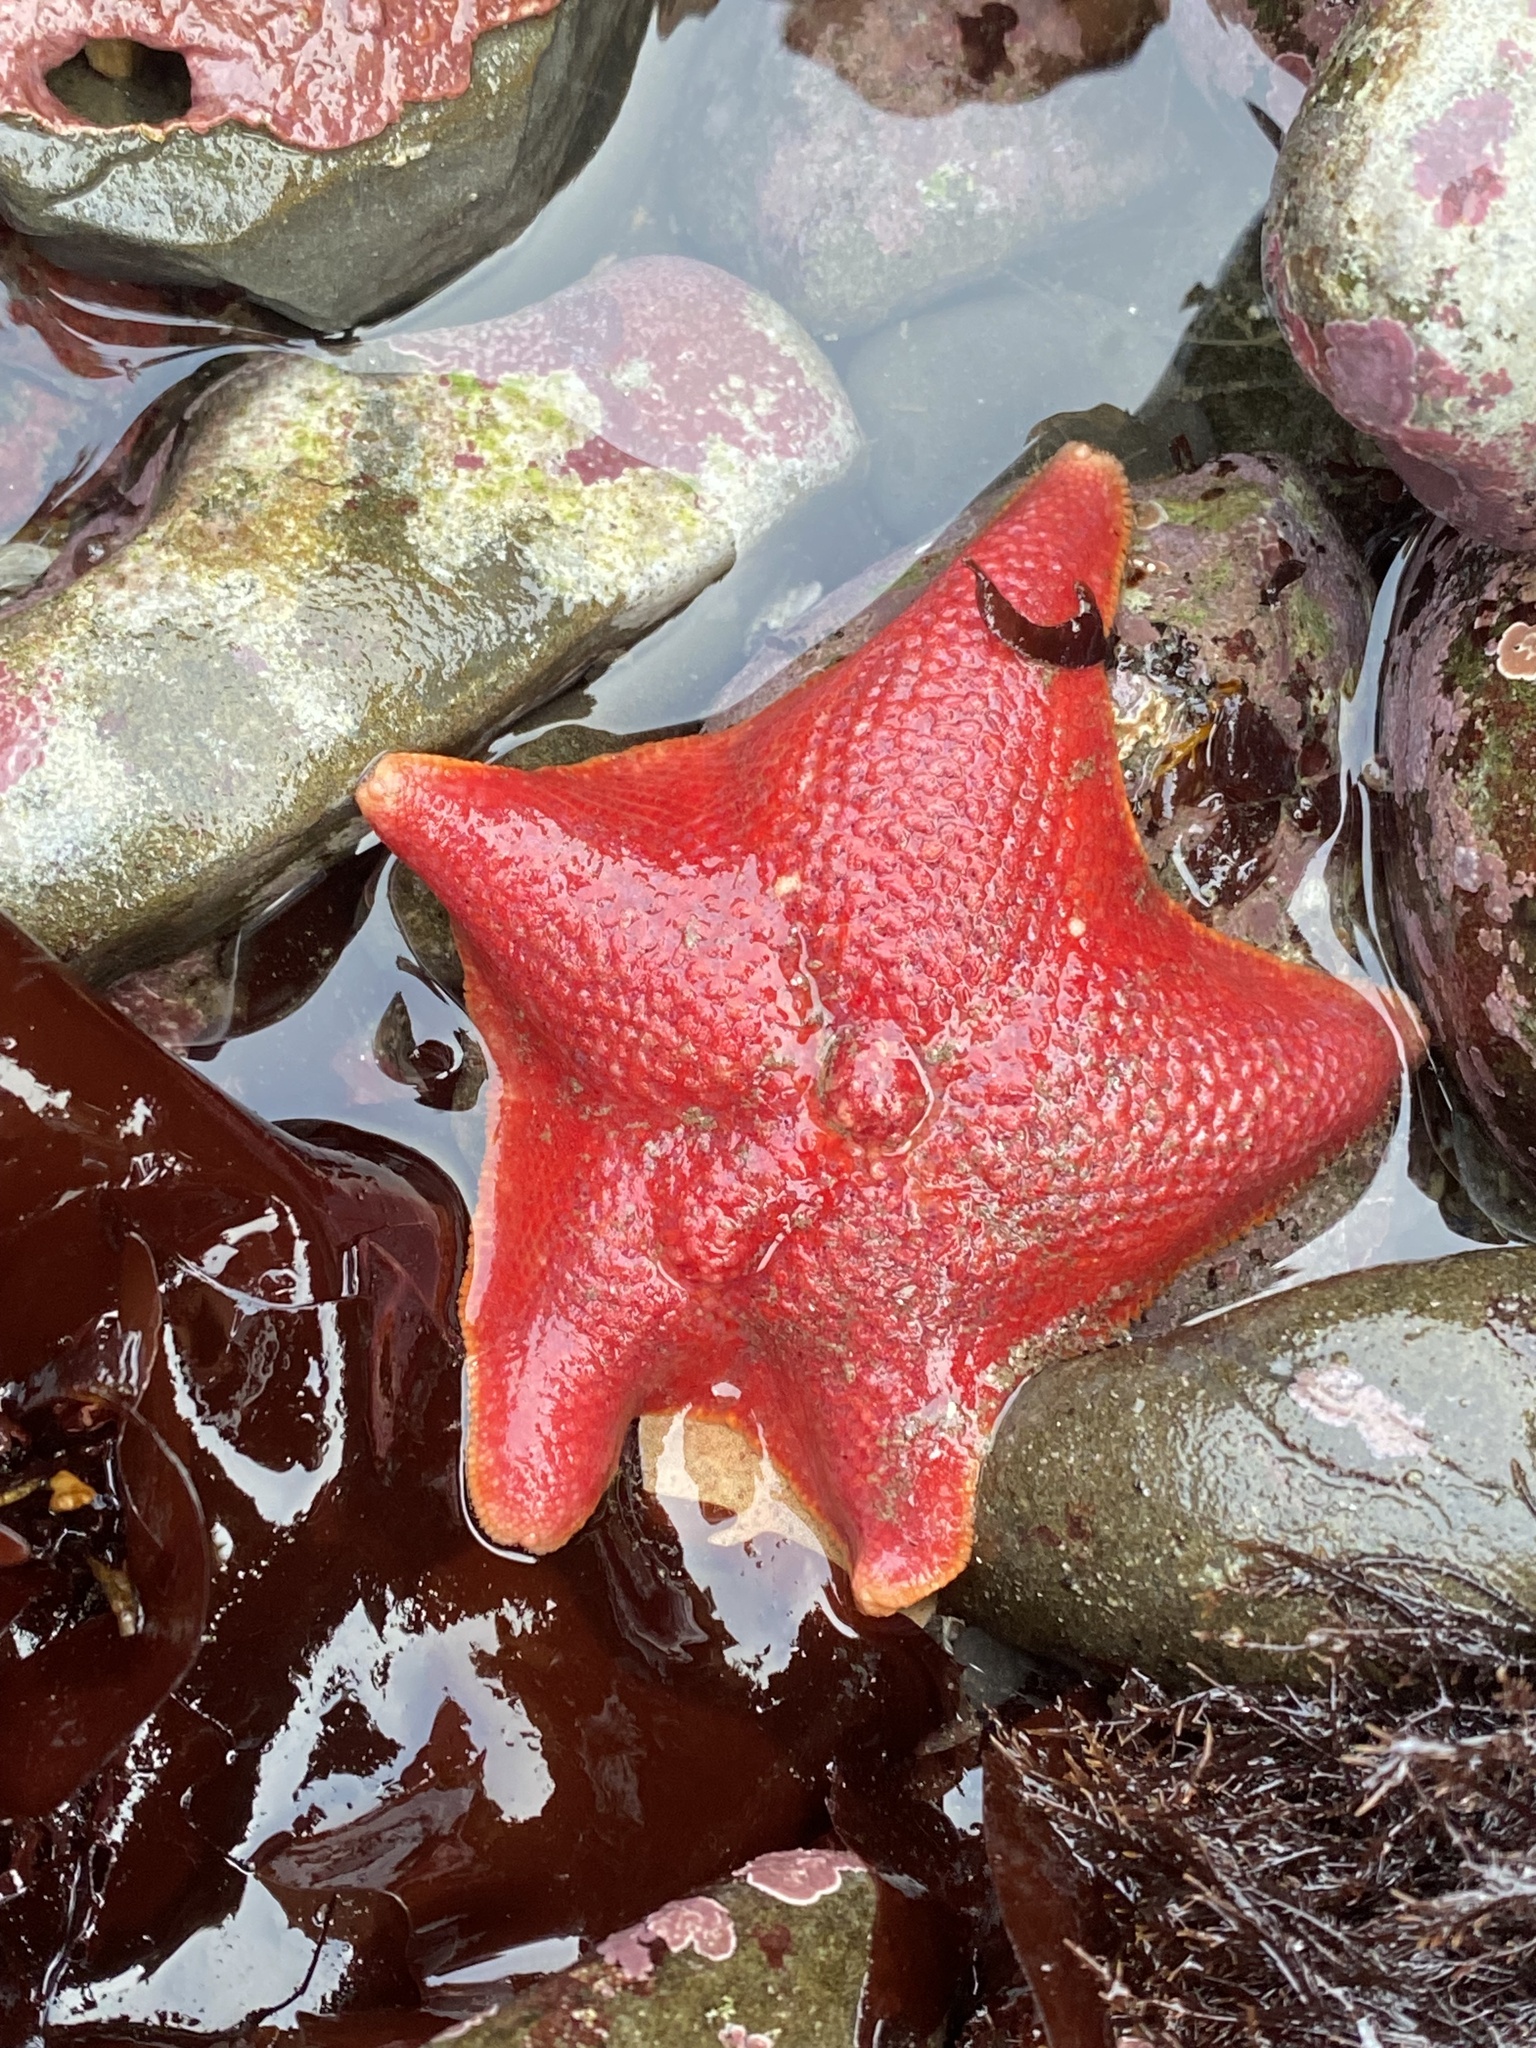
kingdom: Animalia
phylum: Echinodermata
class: Asteroidea
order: Valvatida
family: Asterinidae
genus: Patiria
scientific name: Patiria miniata
